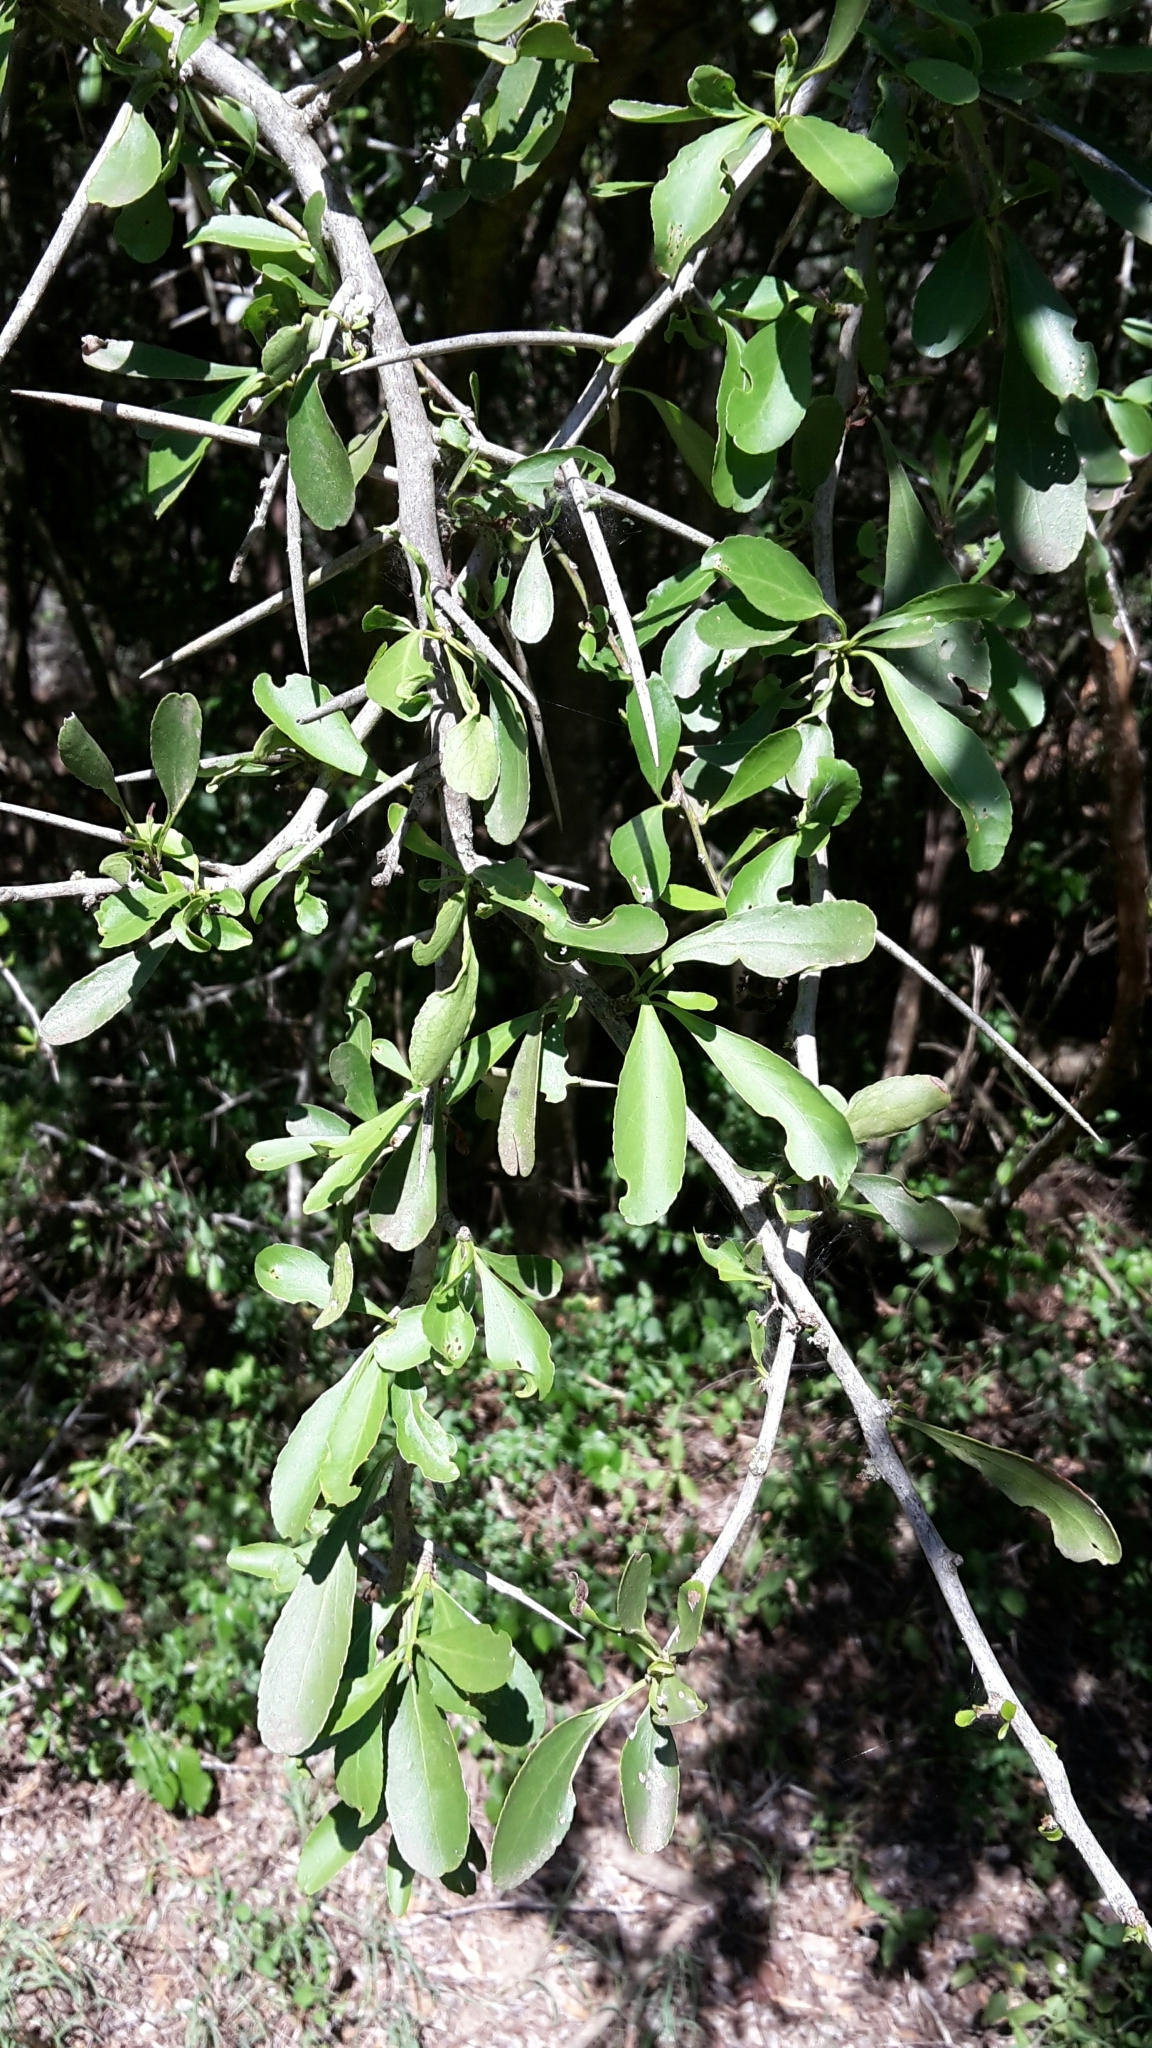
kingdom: Plantae
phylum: Tracheophyta
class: Magnoliopsida
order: Celastrales
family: Celastraceae
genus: Gymnosporia
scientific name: Gymnosporia buxifolia
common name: Common spike-thorn
